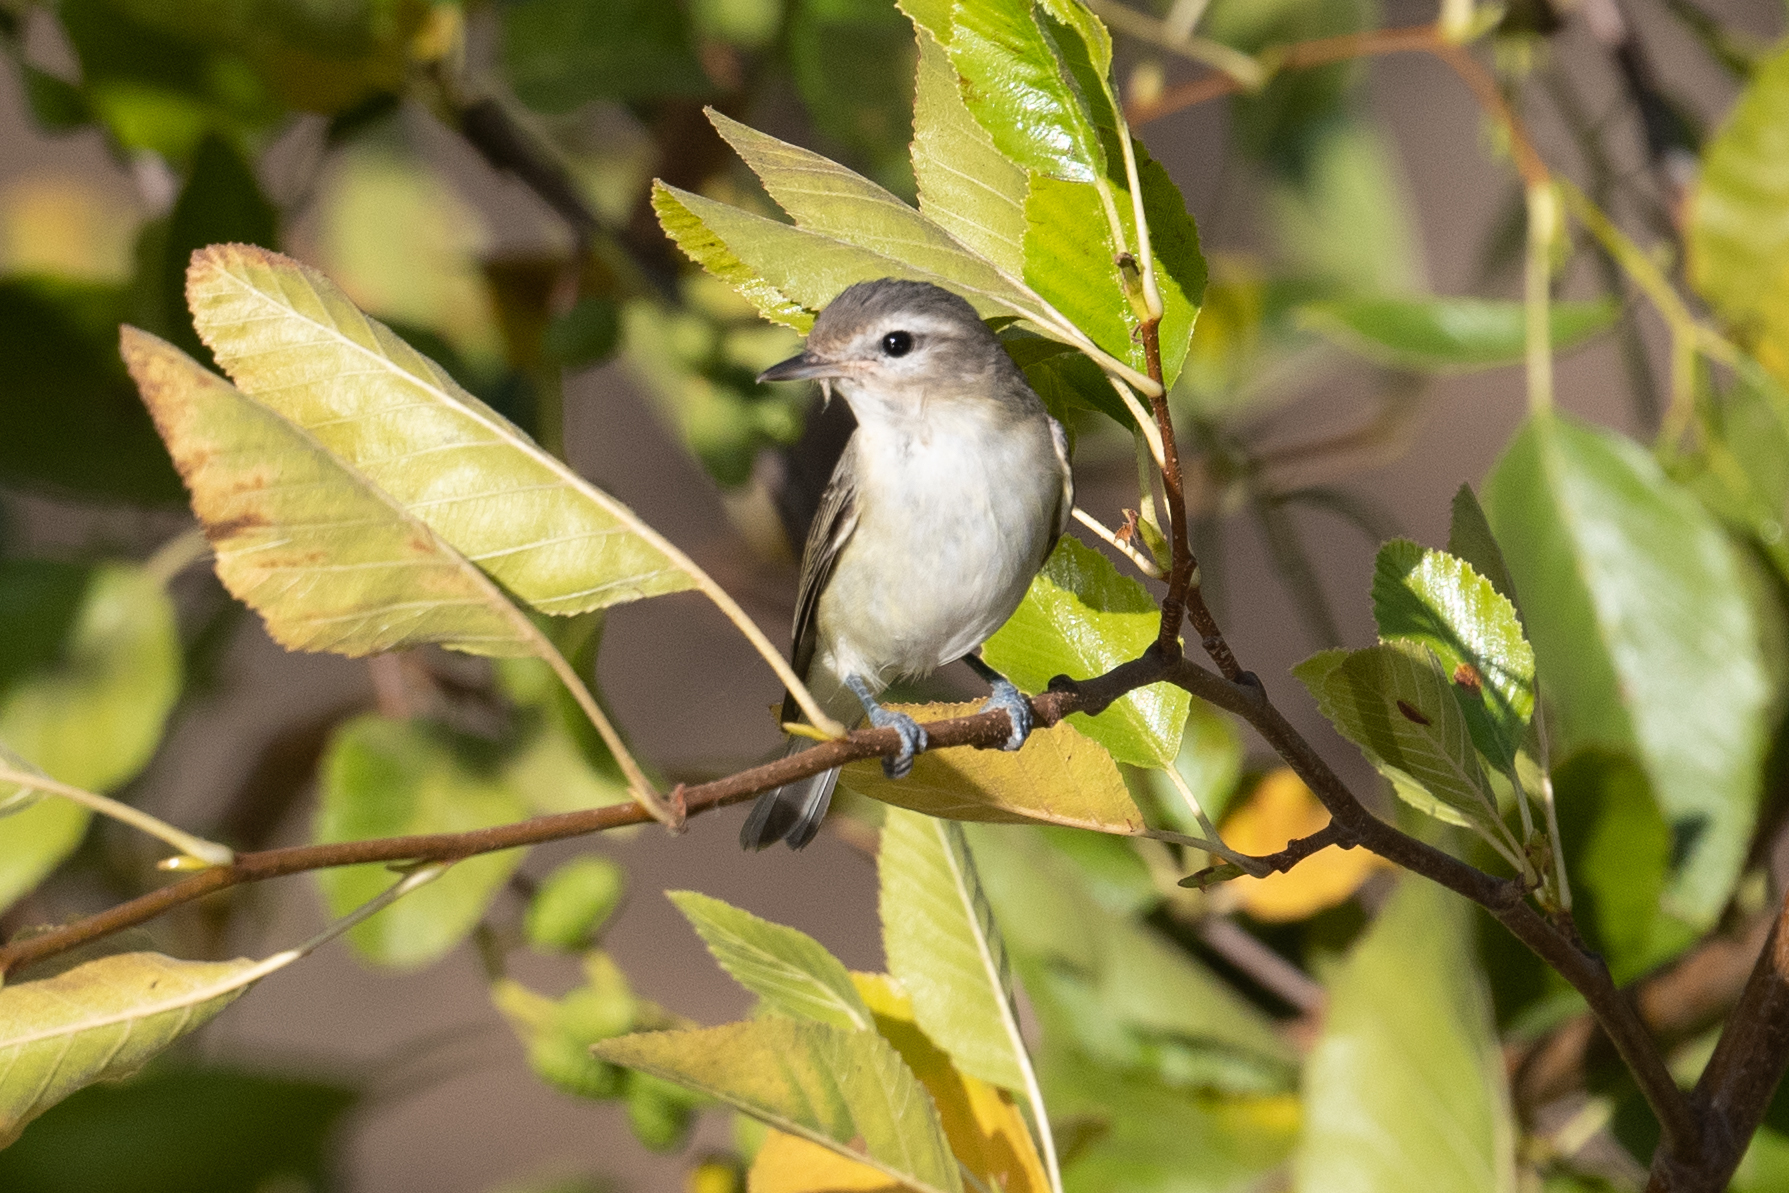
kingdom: Animalia
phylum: Chordata
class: Aves
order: Passeriformes
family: Vireonidae
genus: Vireo
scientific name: Vireo gilvus
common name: Warbling vireo
